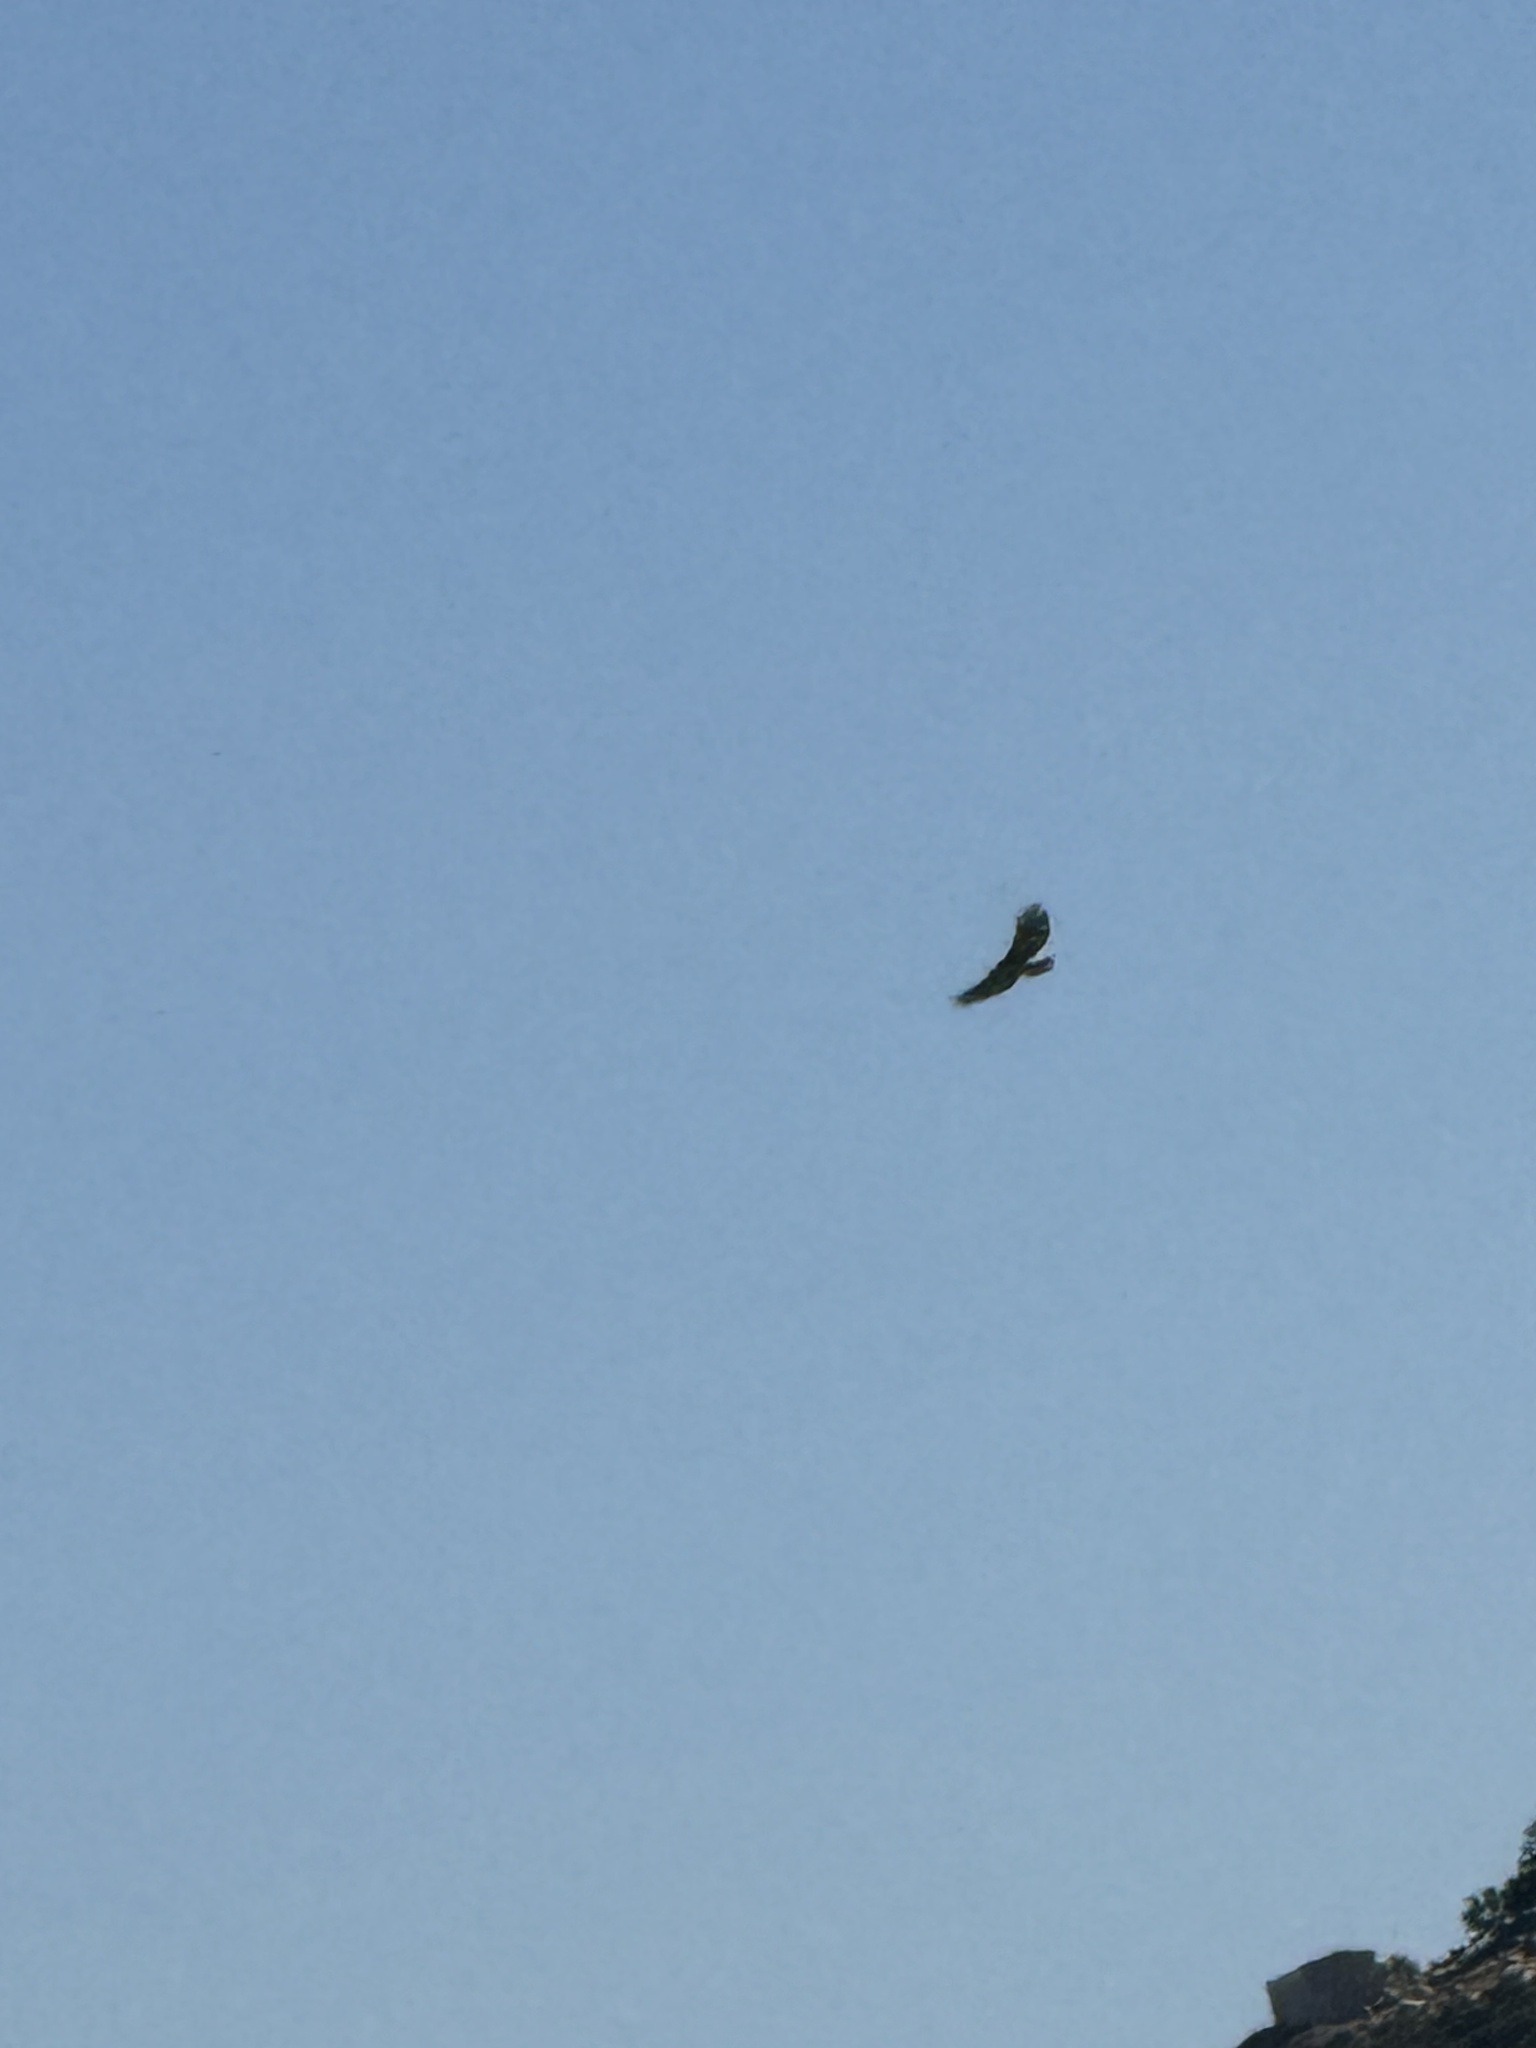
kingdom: Animalia
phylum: Chordata
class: Aves
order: Accipitriformes
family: Accipitridae
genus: Buteo
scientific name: Buteo jamaicensis
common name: Red-tailed hawk
